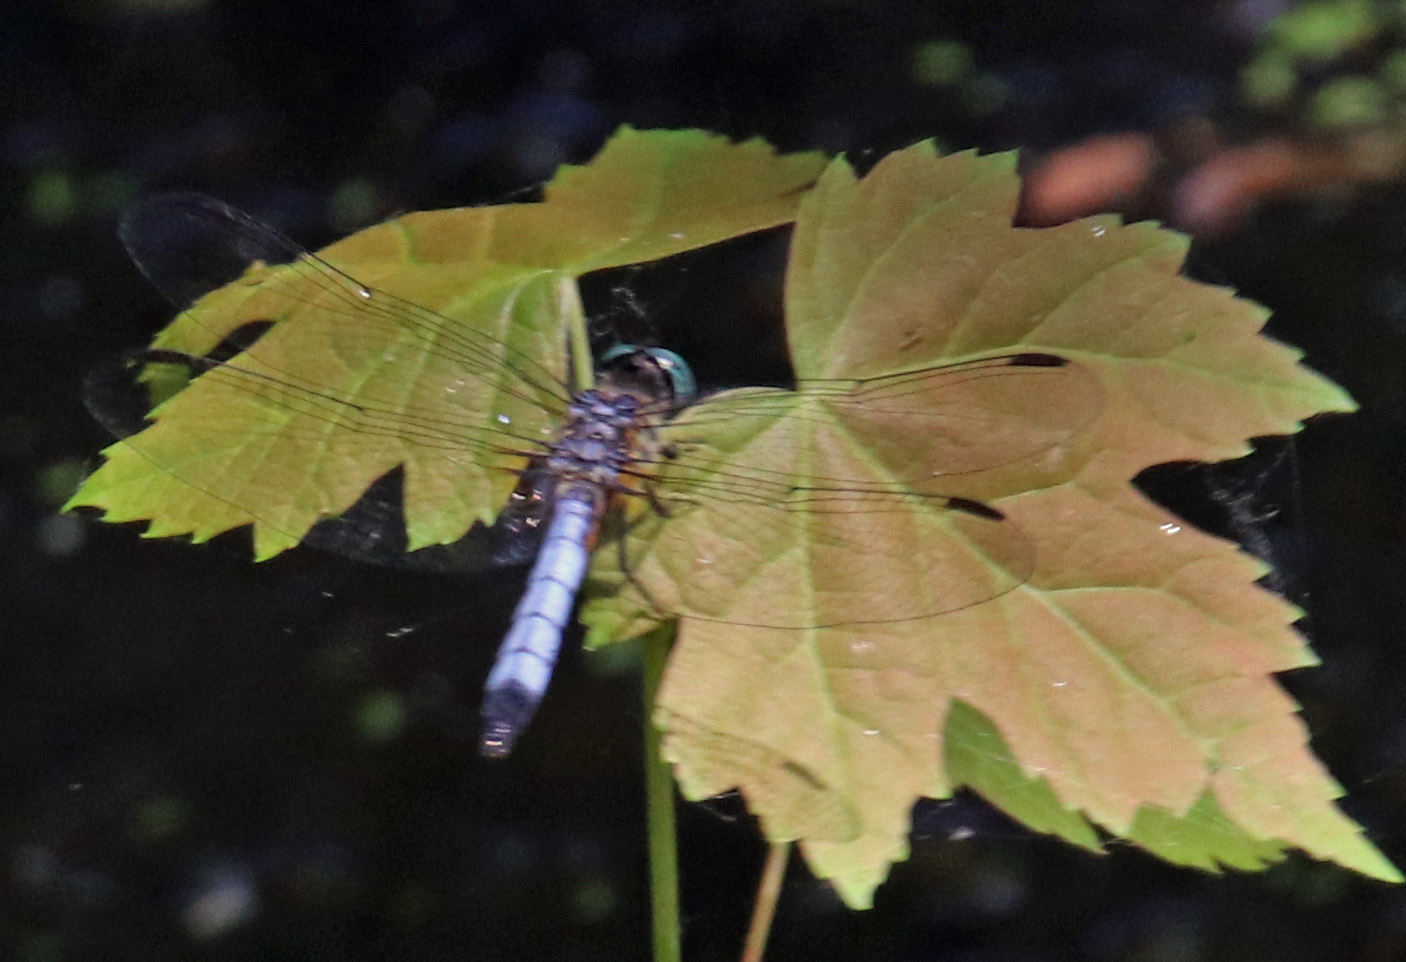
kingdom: Animalia
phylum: Arthropoda
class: Insecta
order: Odonata
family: Libellulidae
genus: Pachydiplax
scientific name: Pachydiplax longipennis
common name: Blue dasher
